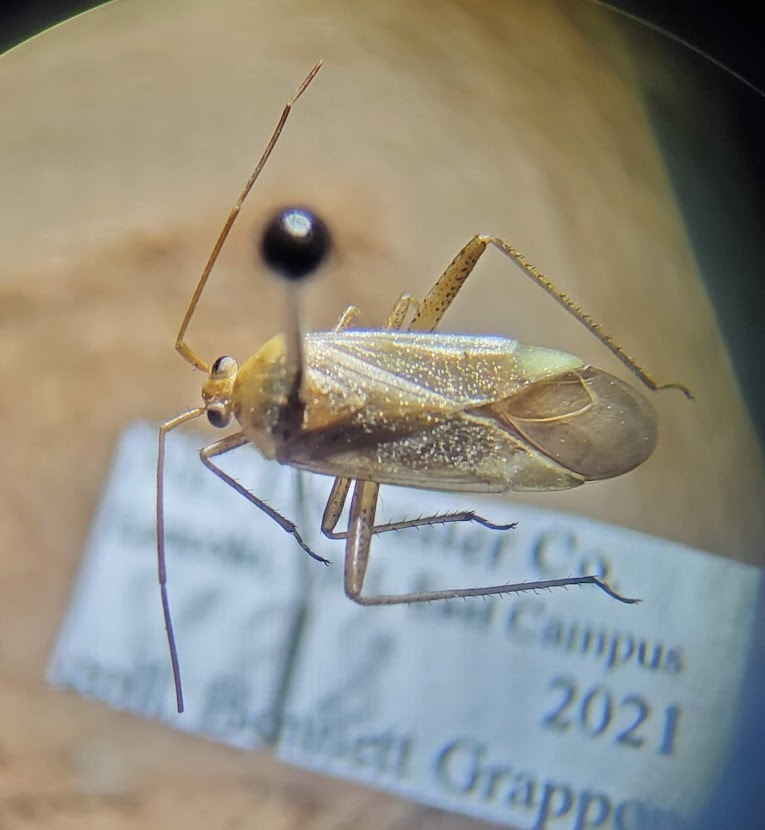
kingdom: Animalia
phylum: Arthropoda
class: Insecta
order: Hemiptera
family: Miridae
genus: Adelphocoris
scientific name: Adelphocoris lineolatus
